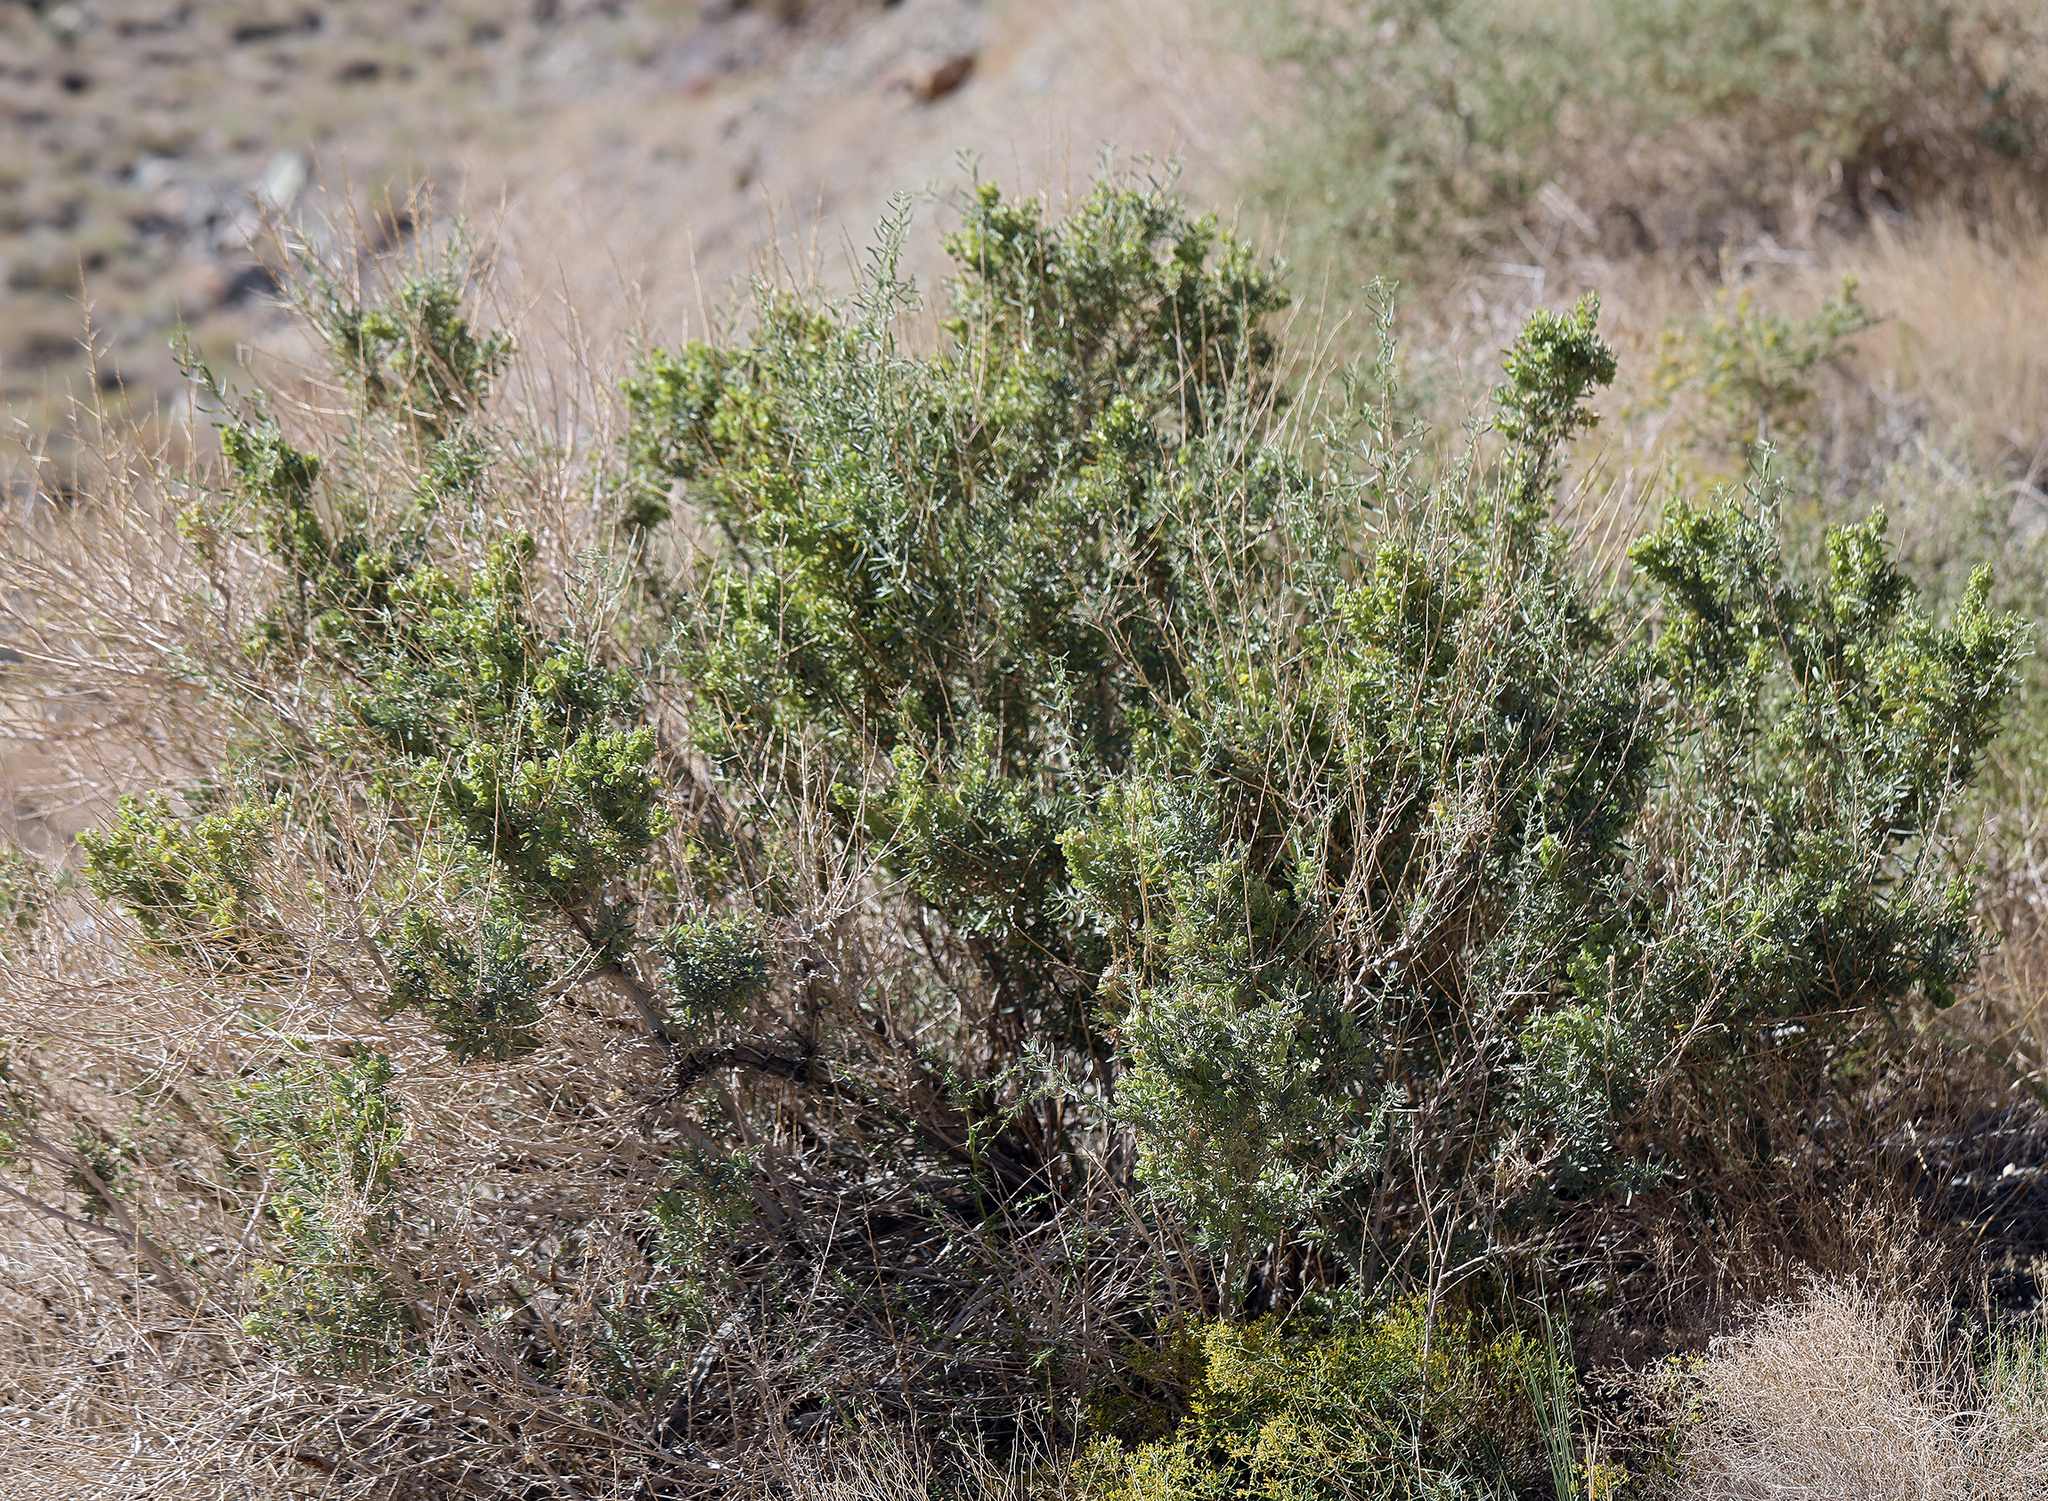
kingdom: Plantae
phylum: Tracheophyta
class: Magnoliopsida
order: Caryophyllales
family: Amaranthaceae
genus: Atriplex
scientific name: Atriplex canescens
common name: Four-wing saltbush
